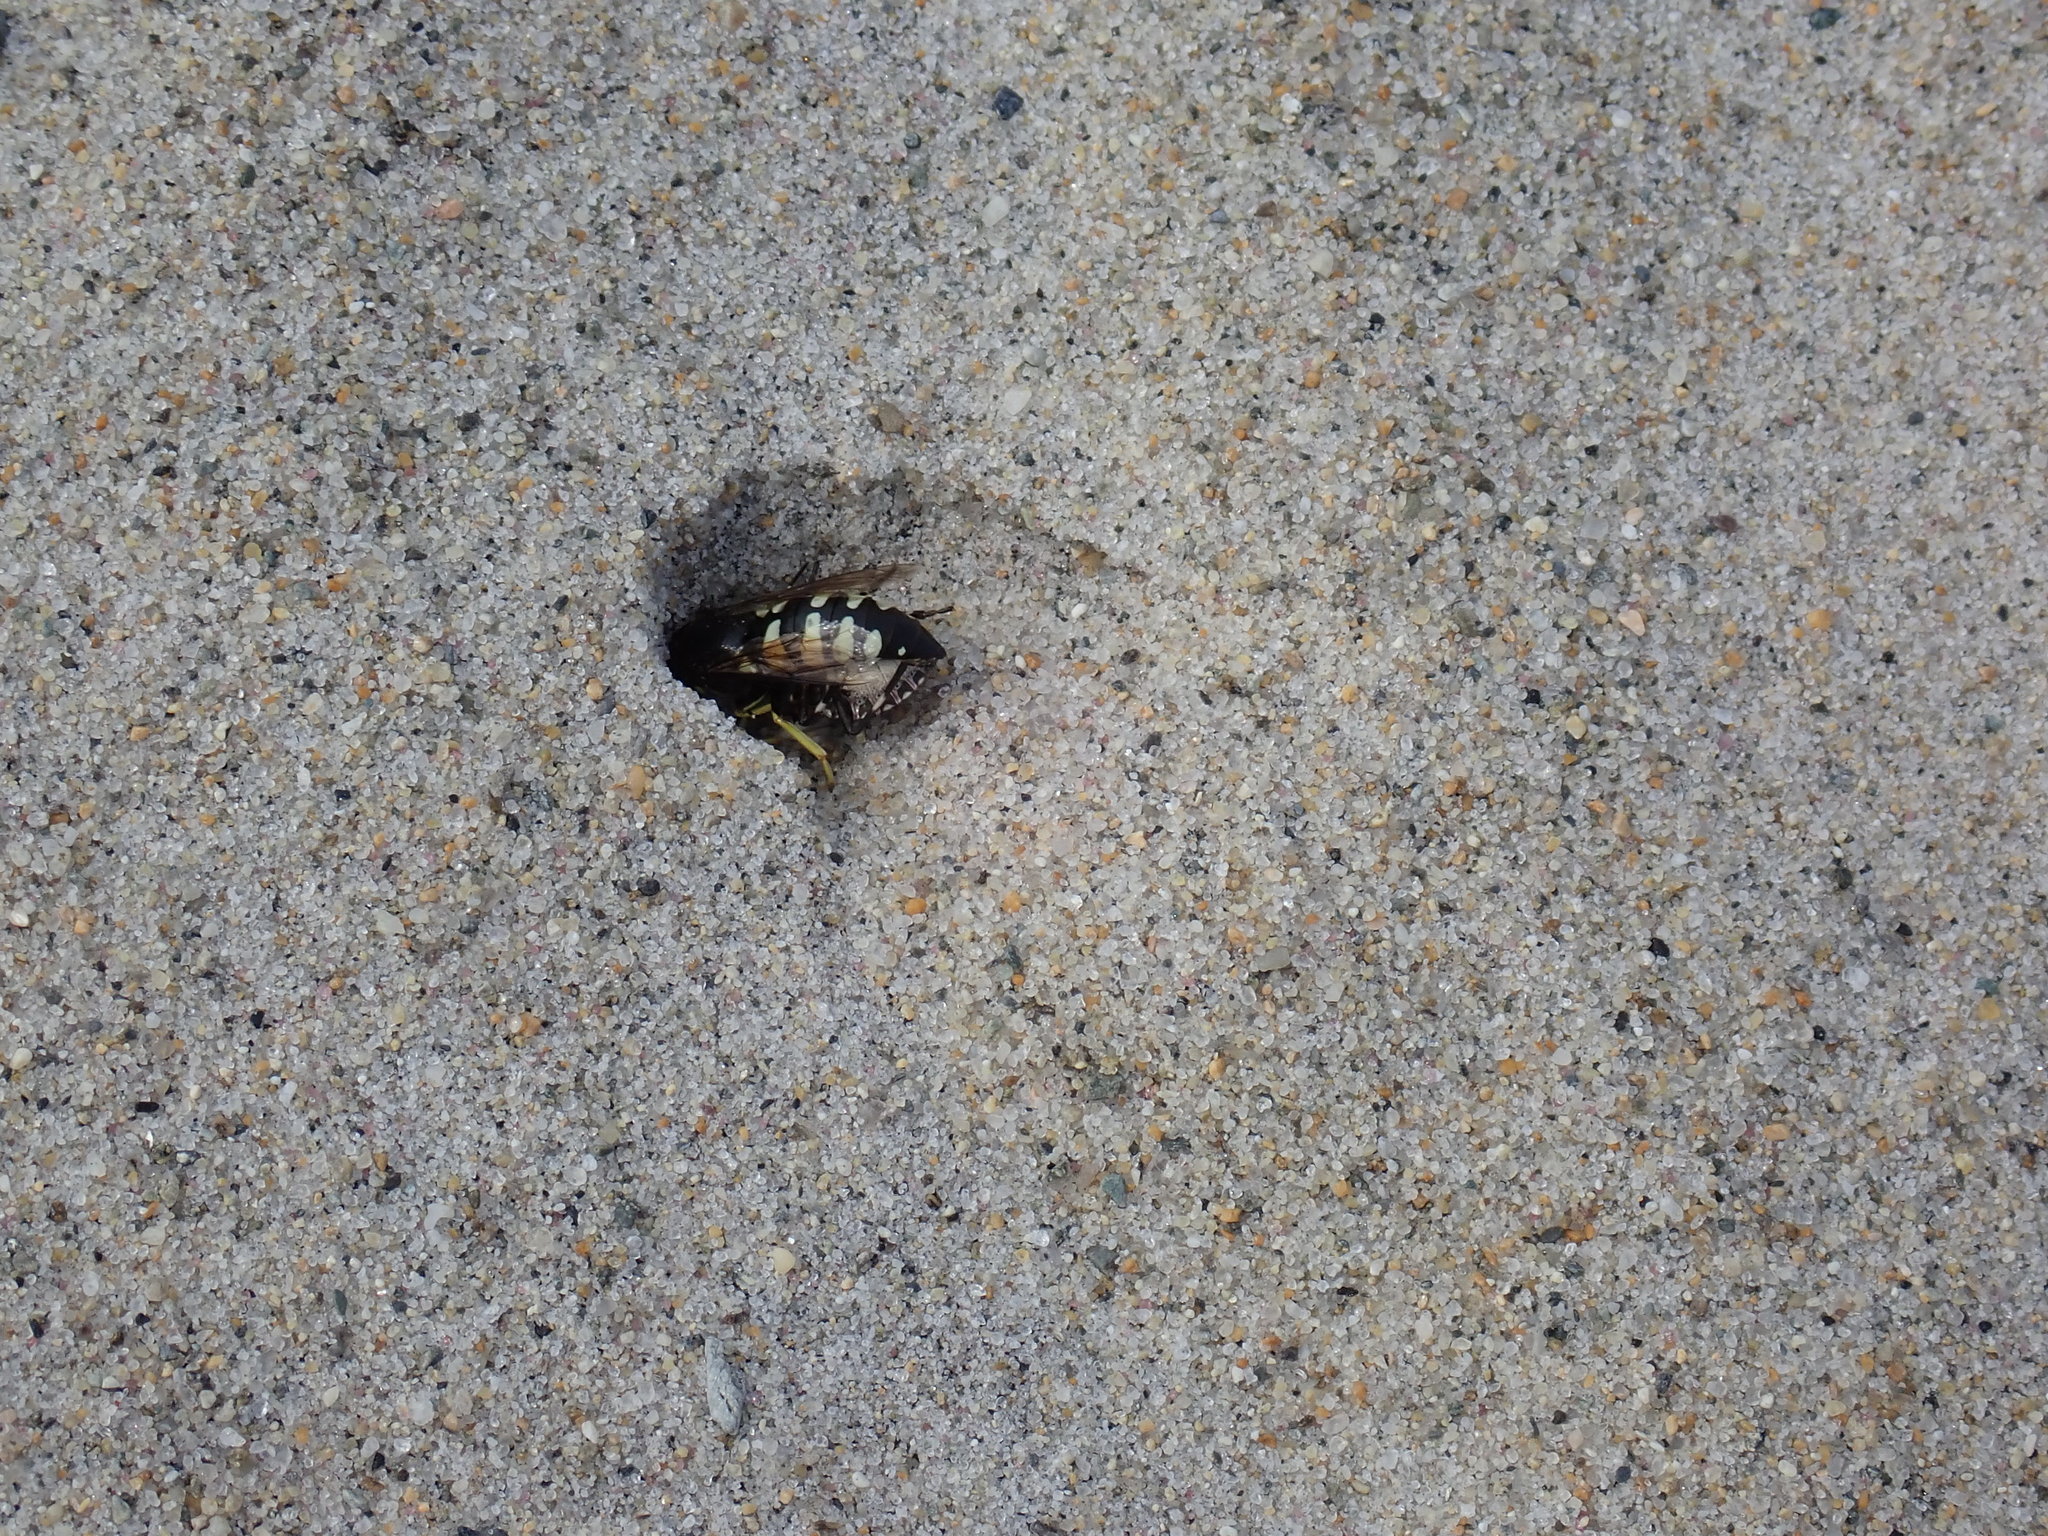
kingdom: Animalia
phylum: Arthropoda
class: Insecta
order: Hymenoptera
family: Crabronidae
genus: Bicyrtes
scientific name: Bicyrtes quadrifasciatus
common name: Four-banded stink bug hunter wasp
